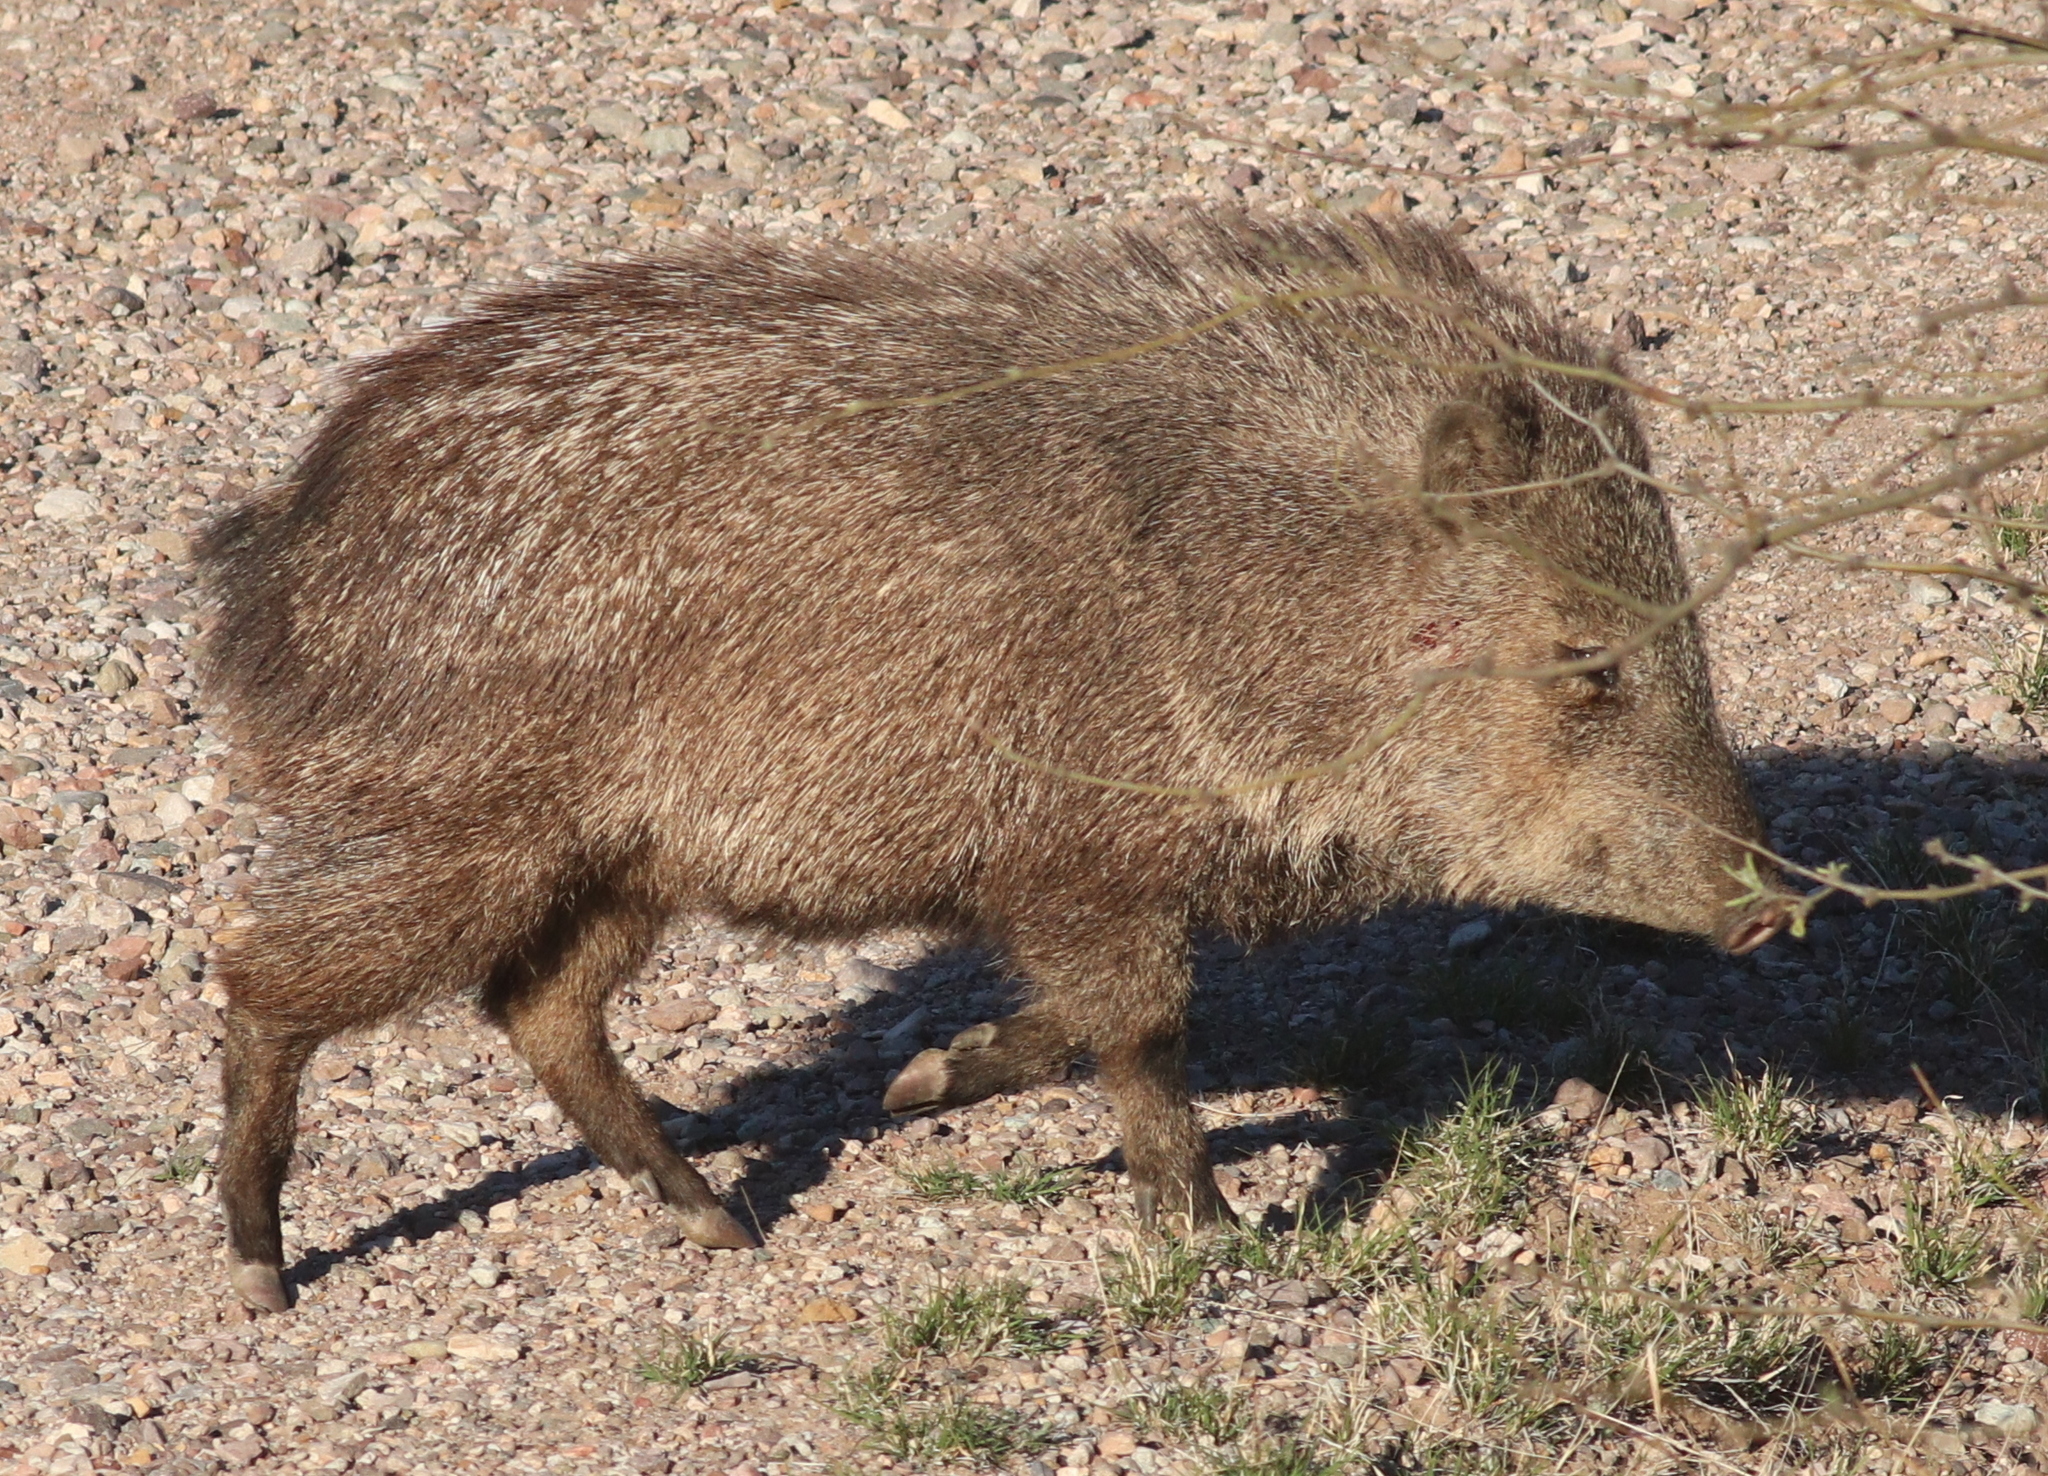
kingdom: Animalia
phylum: Chordata
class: Mammalia
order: Artiodactyla
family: Tayassuidae
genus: Pecari
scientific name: Pecari tajacu
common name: Collared peccary
